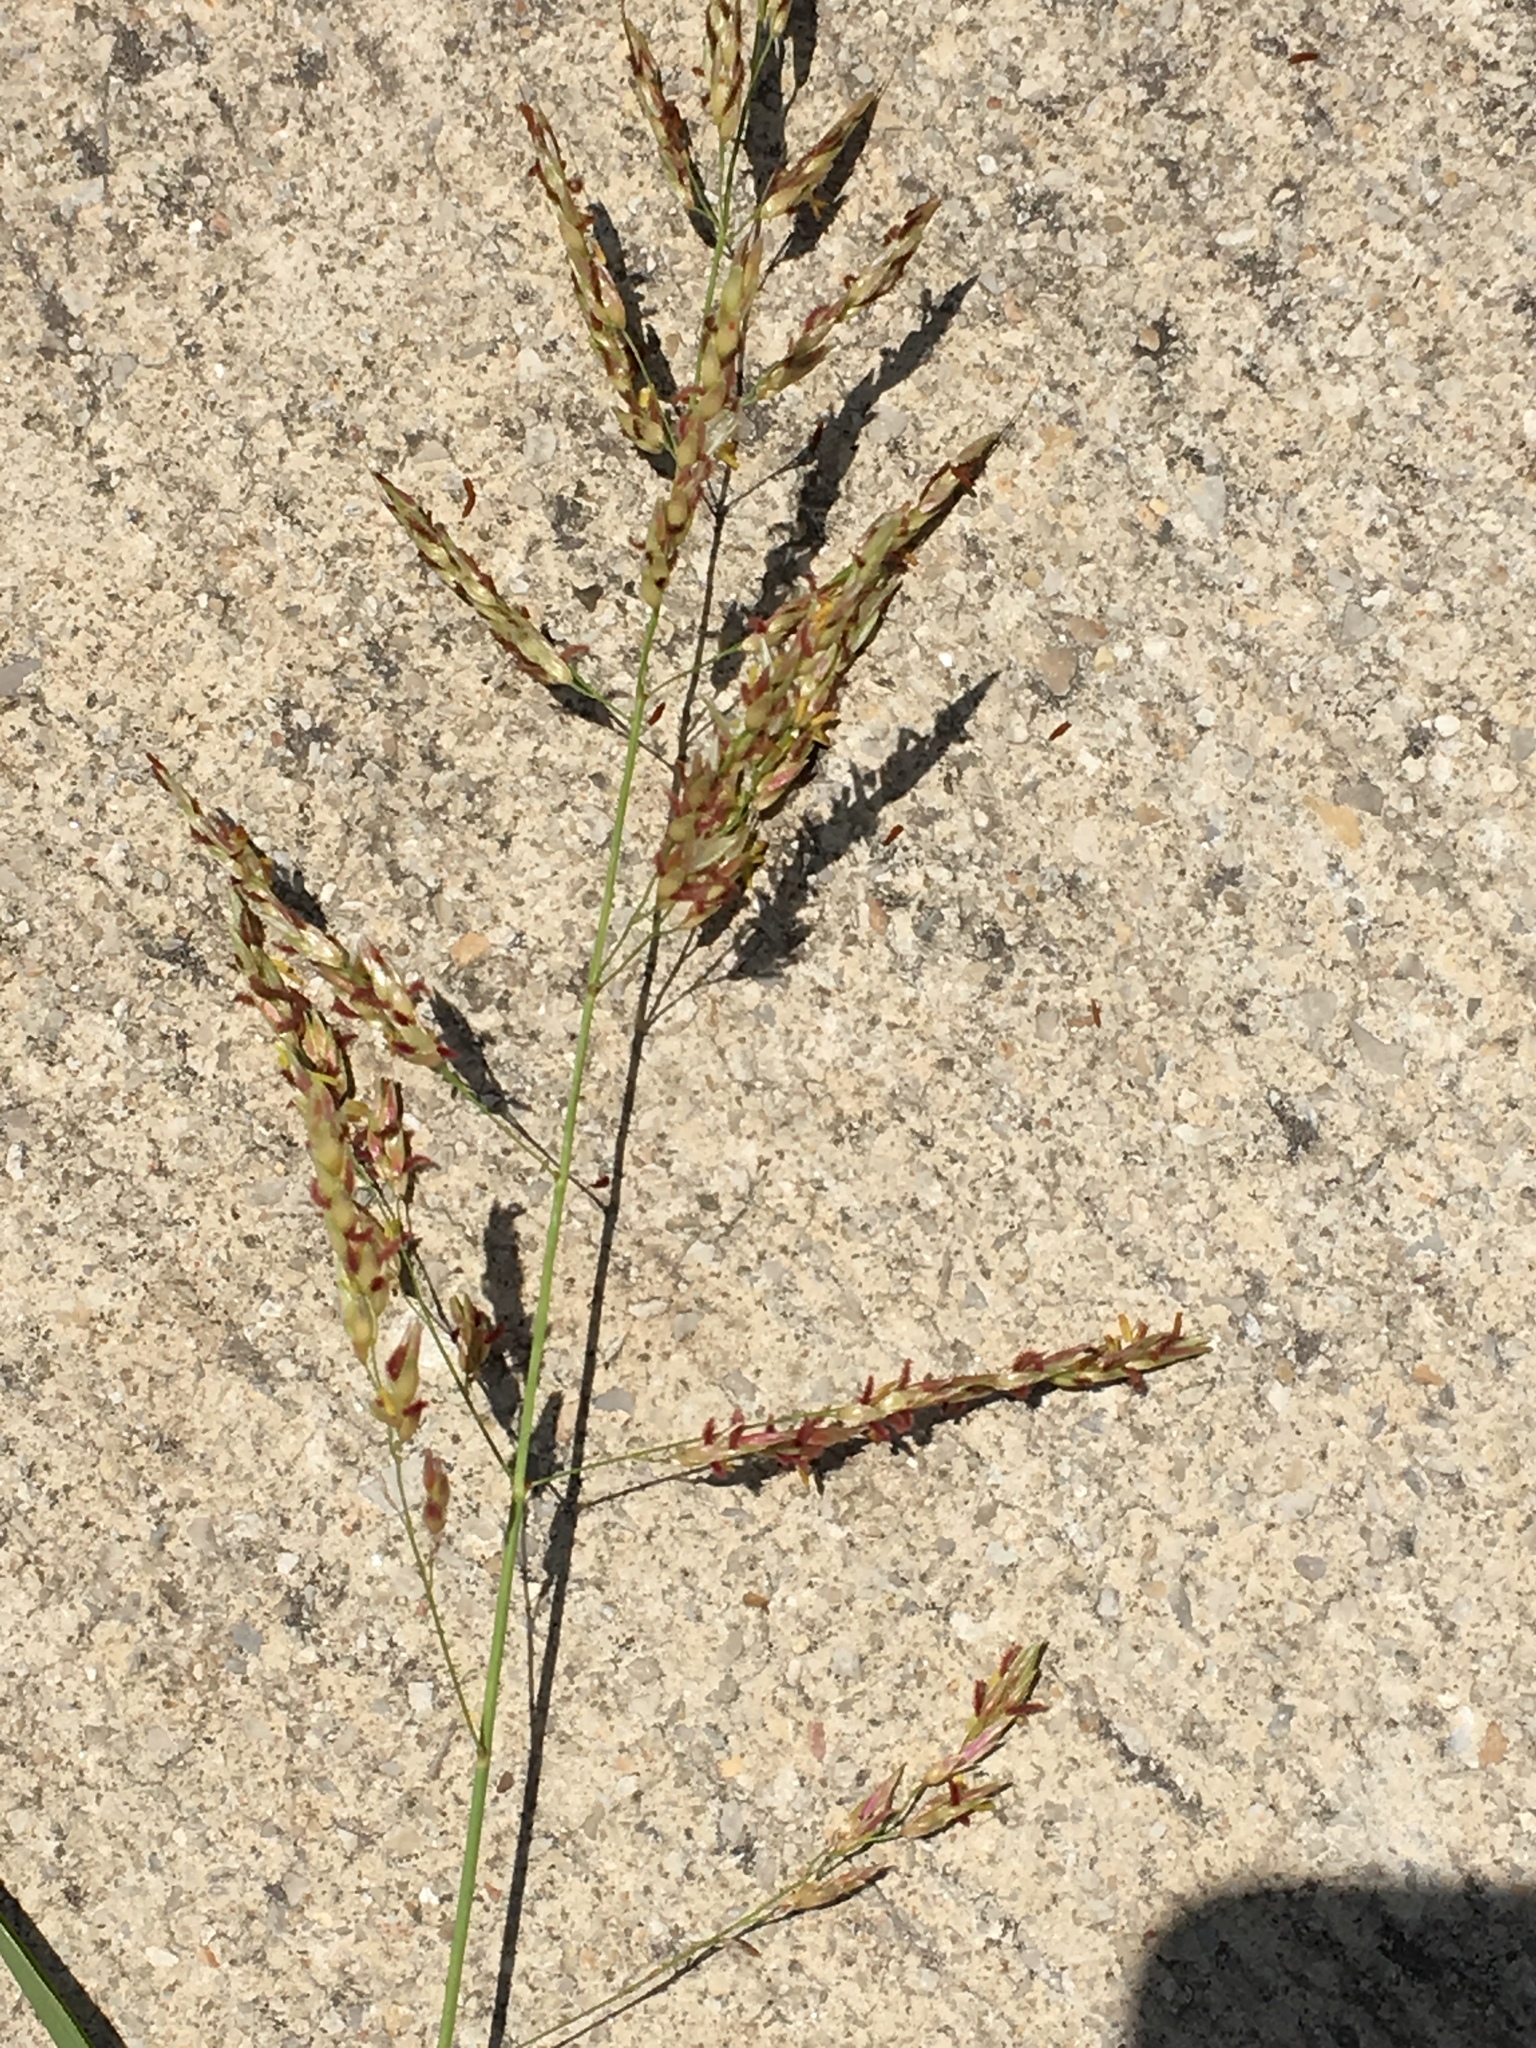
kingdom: Plantae
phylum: Tracheophyta
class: Liliopsida
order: Poales
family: Poaceae
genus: Sorghum
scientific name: Sorghum halepense
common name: Johnson-grass
